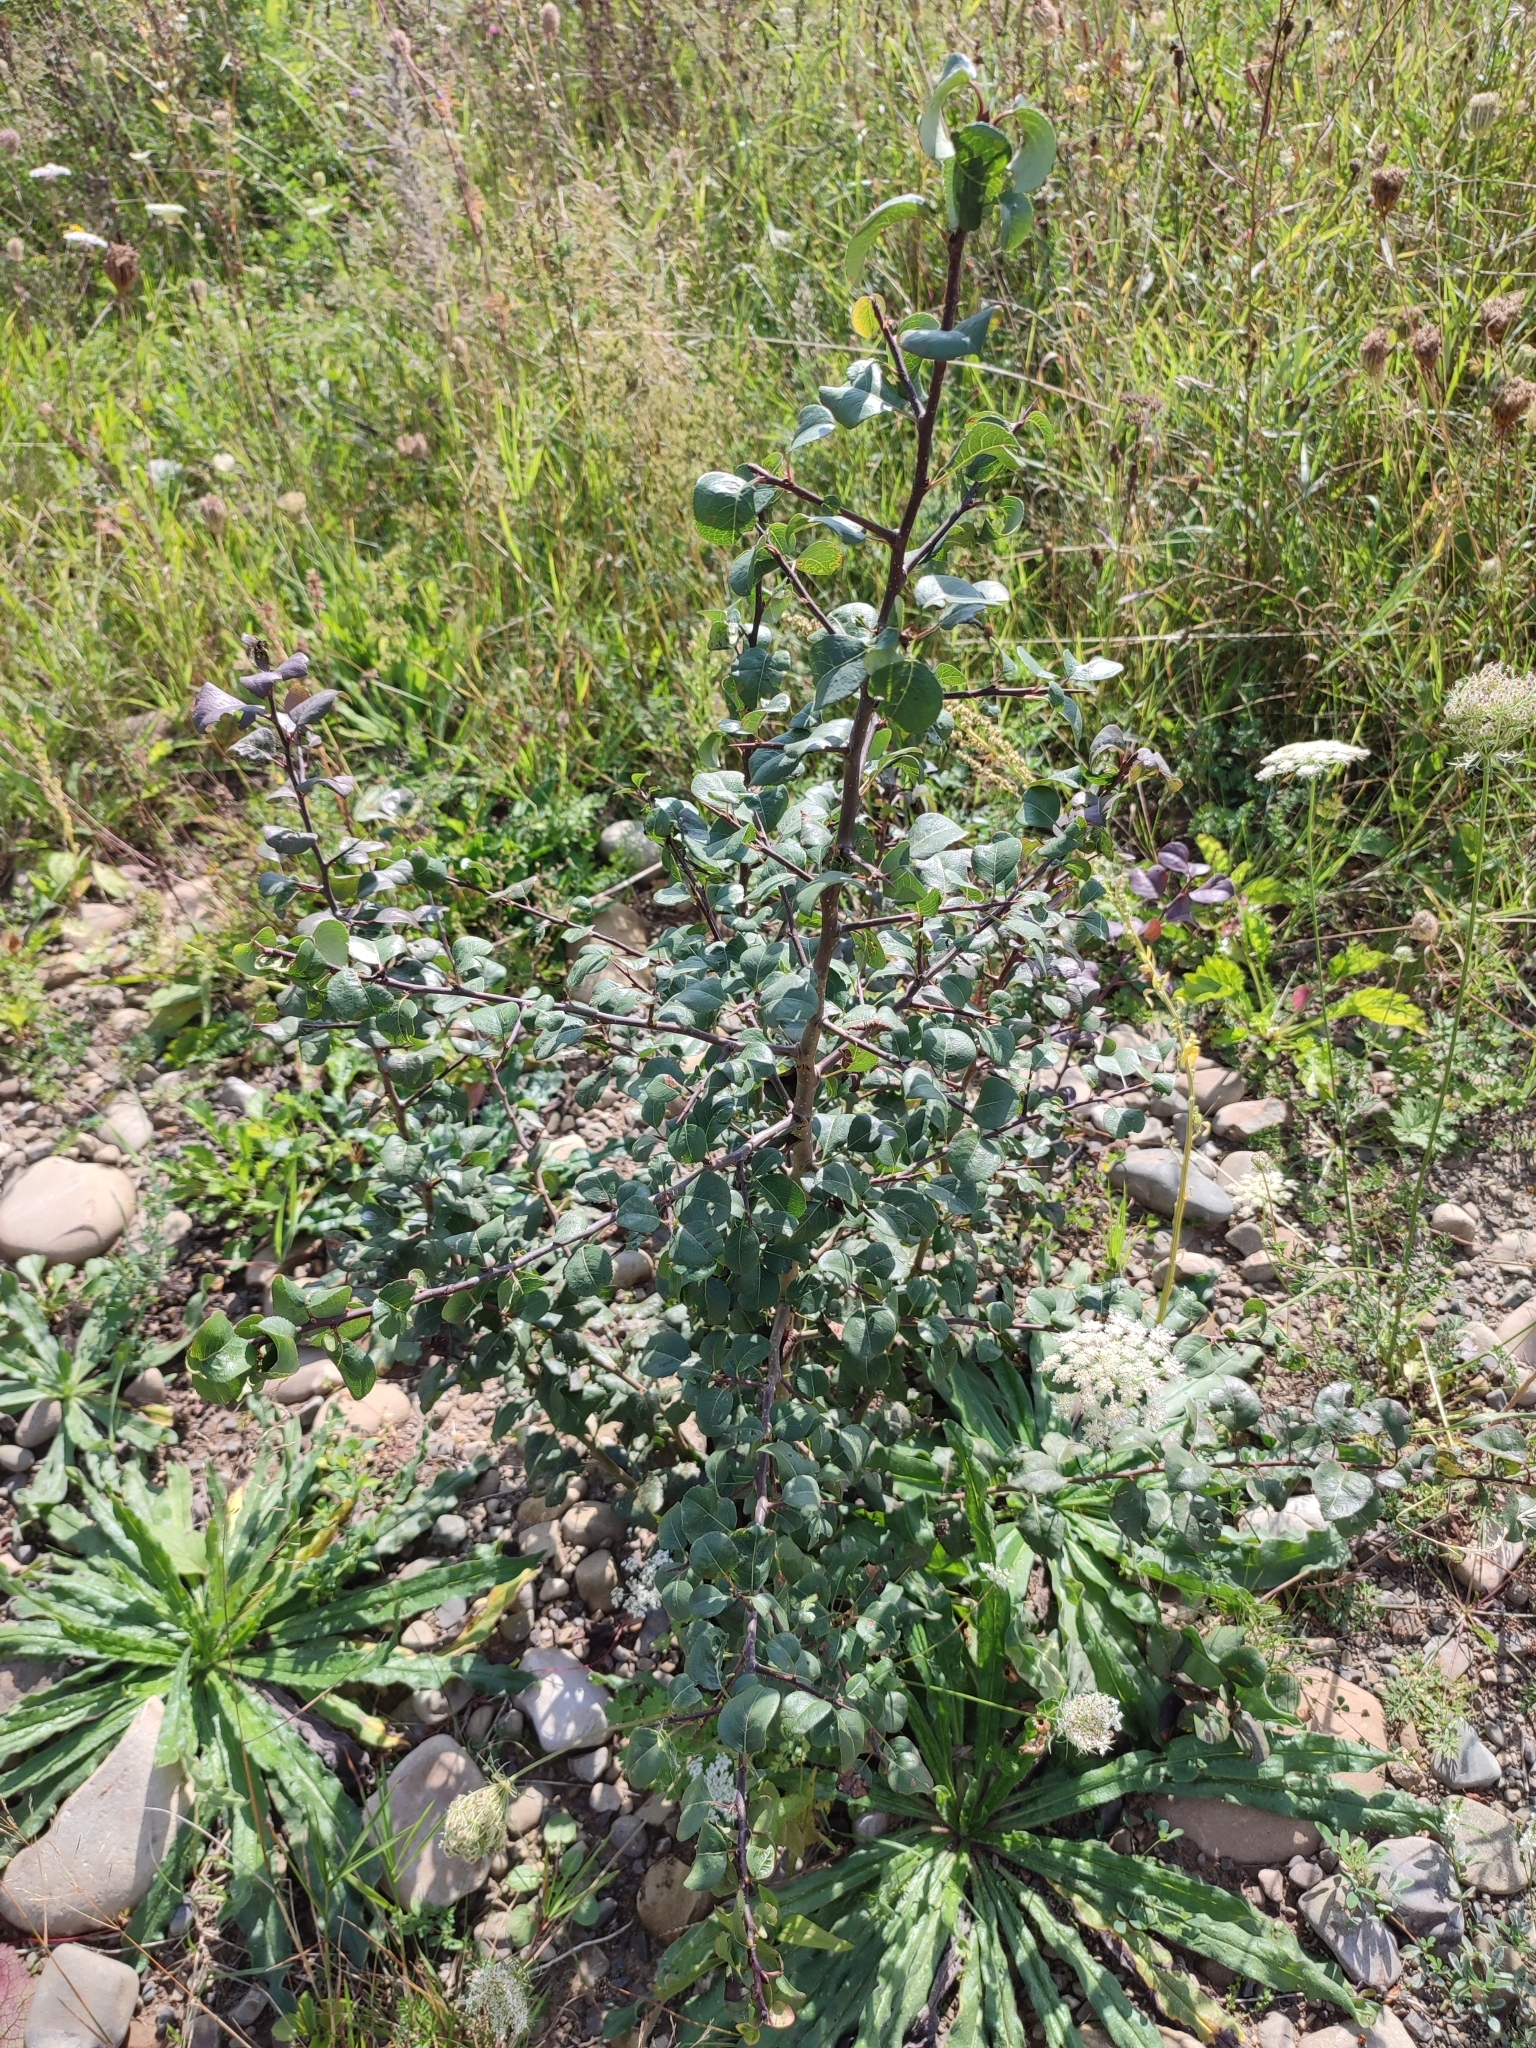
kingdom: Plantae
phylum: Tracheophyta
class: Magnoliopsida
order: Rosales
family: Rosaceae
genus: Pyrus
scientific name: Pyrus communis
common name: Pear
